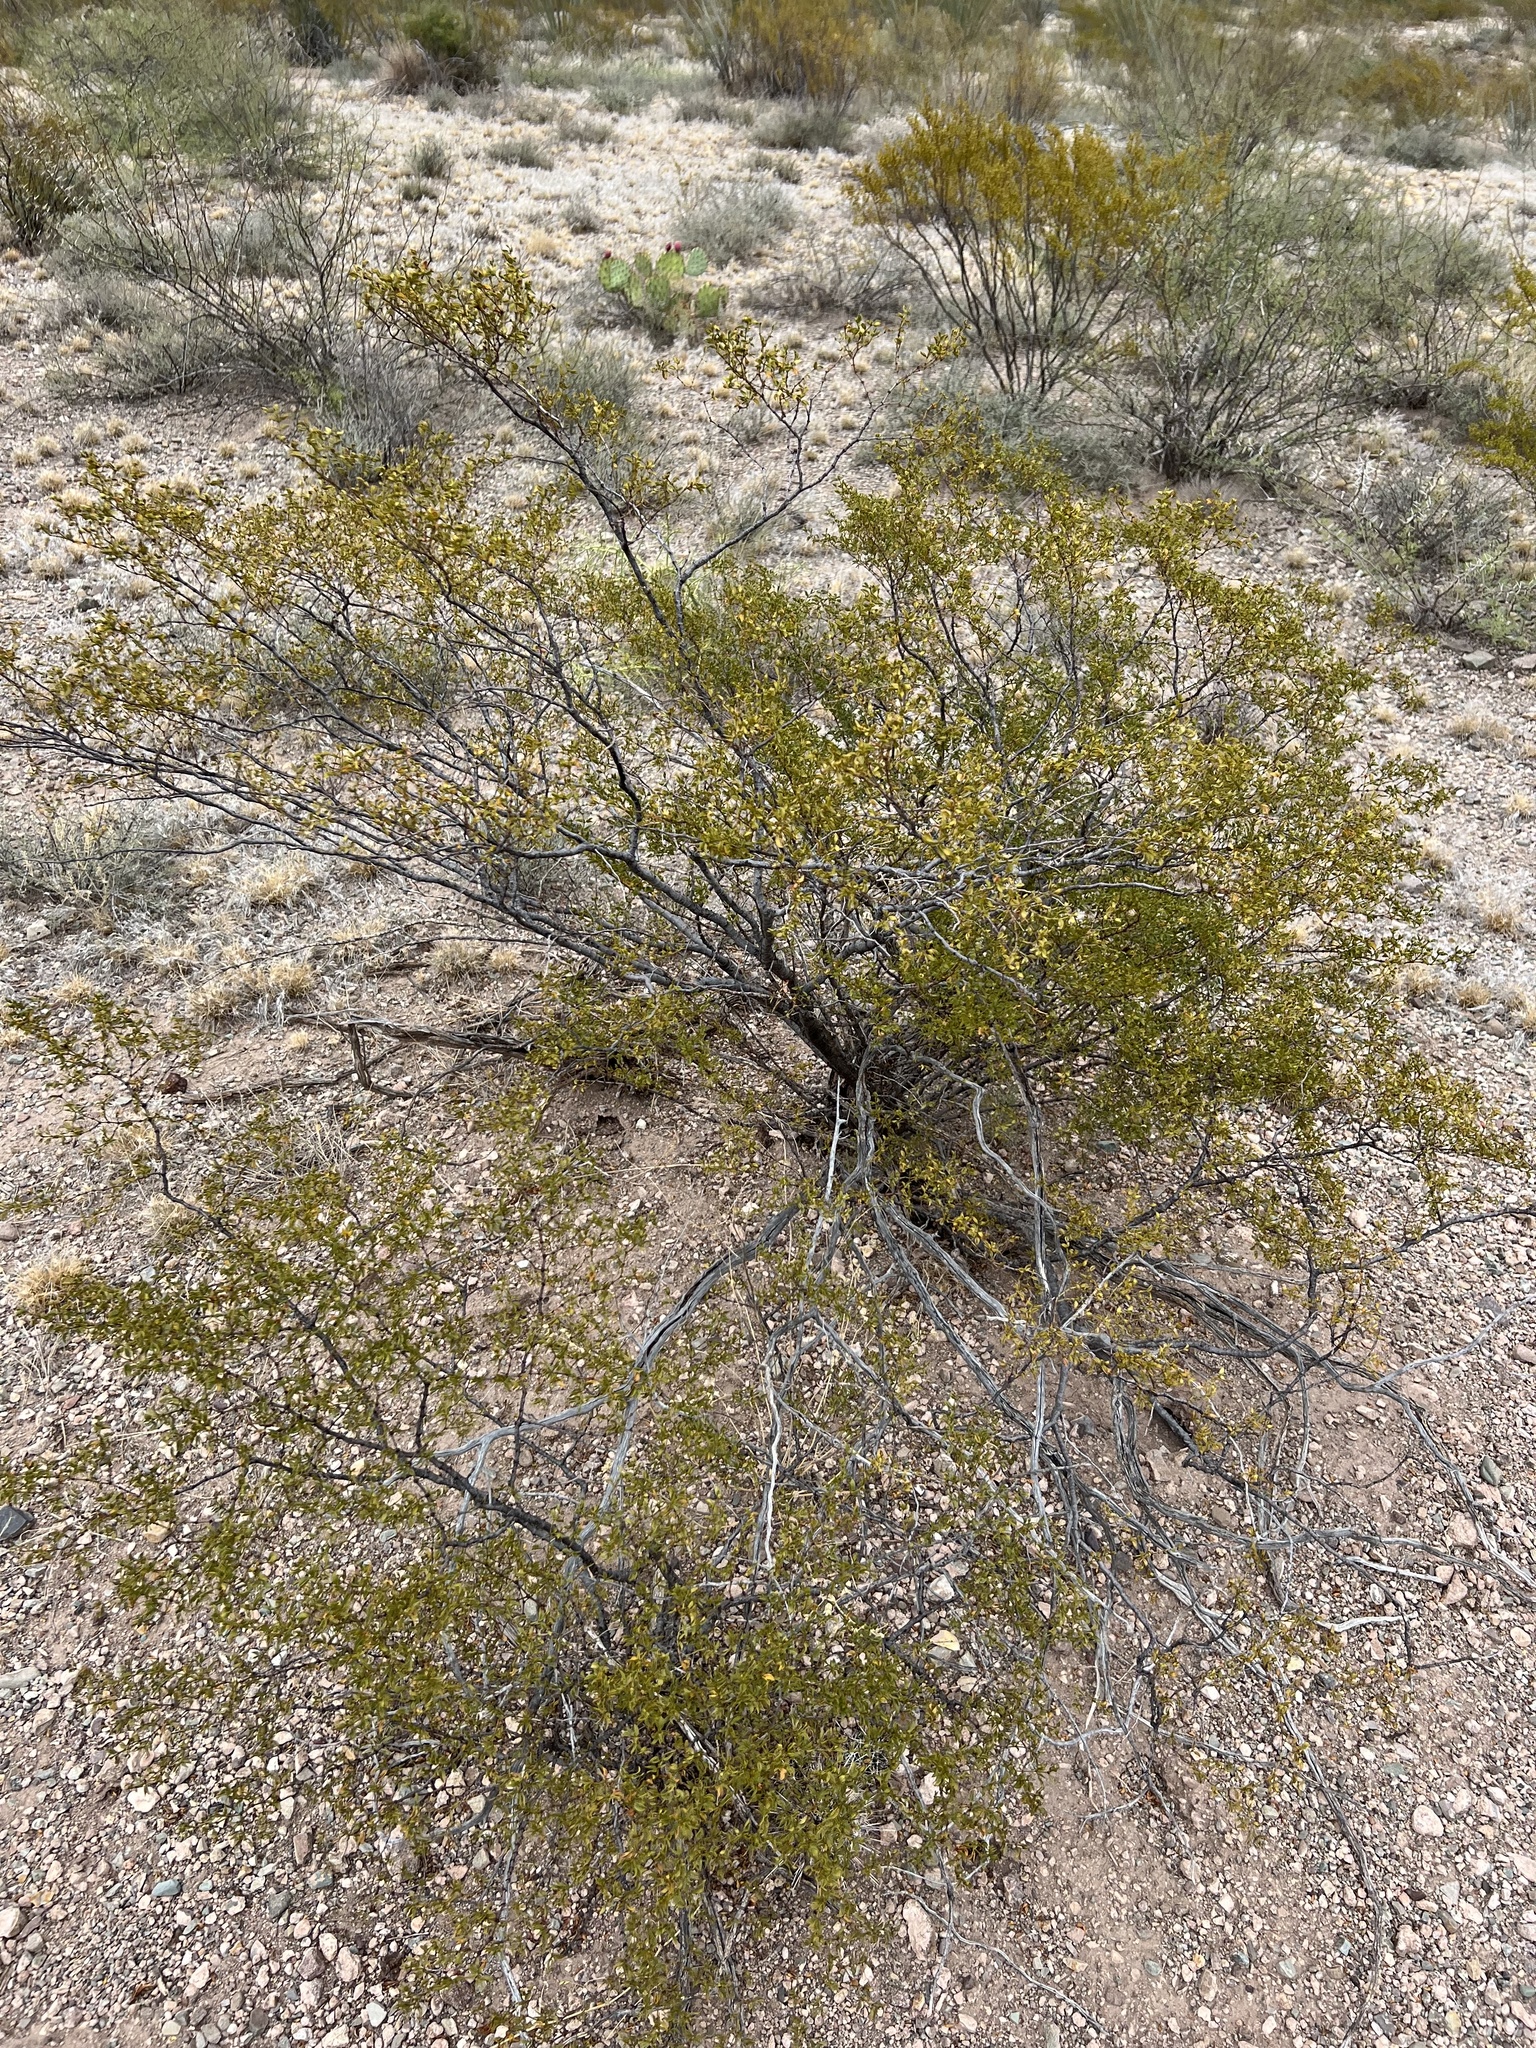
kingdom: Plantae
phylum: Tracheophyta
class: Magnoliopsida
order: Zygophyllales
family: Zygophyllaceae
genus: Larrea
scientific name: Larrea tridentata
